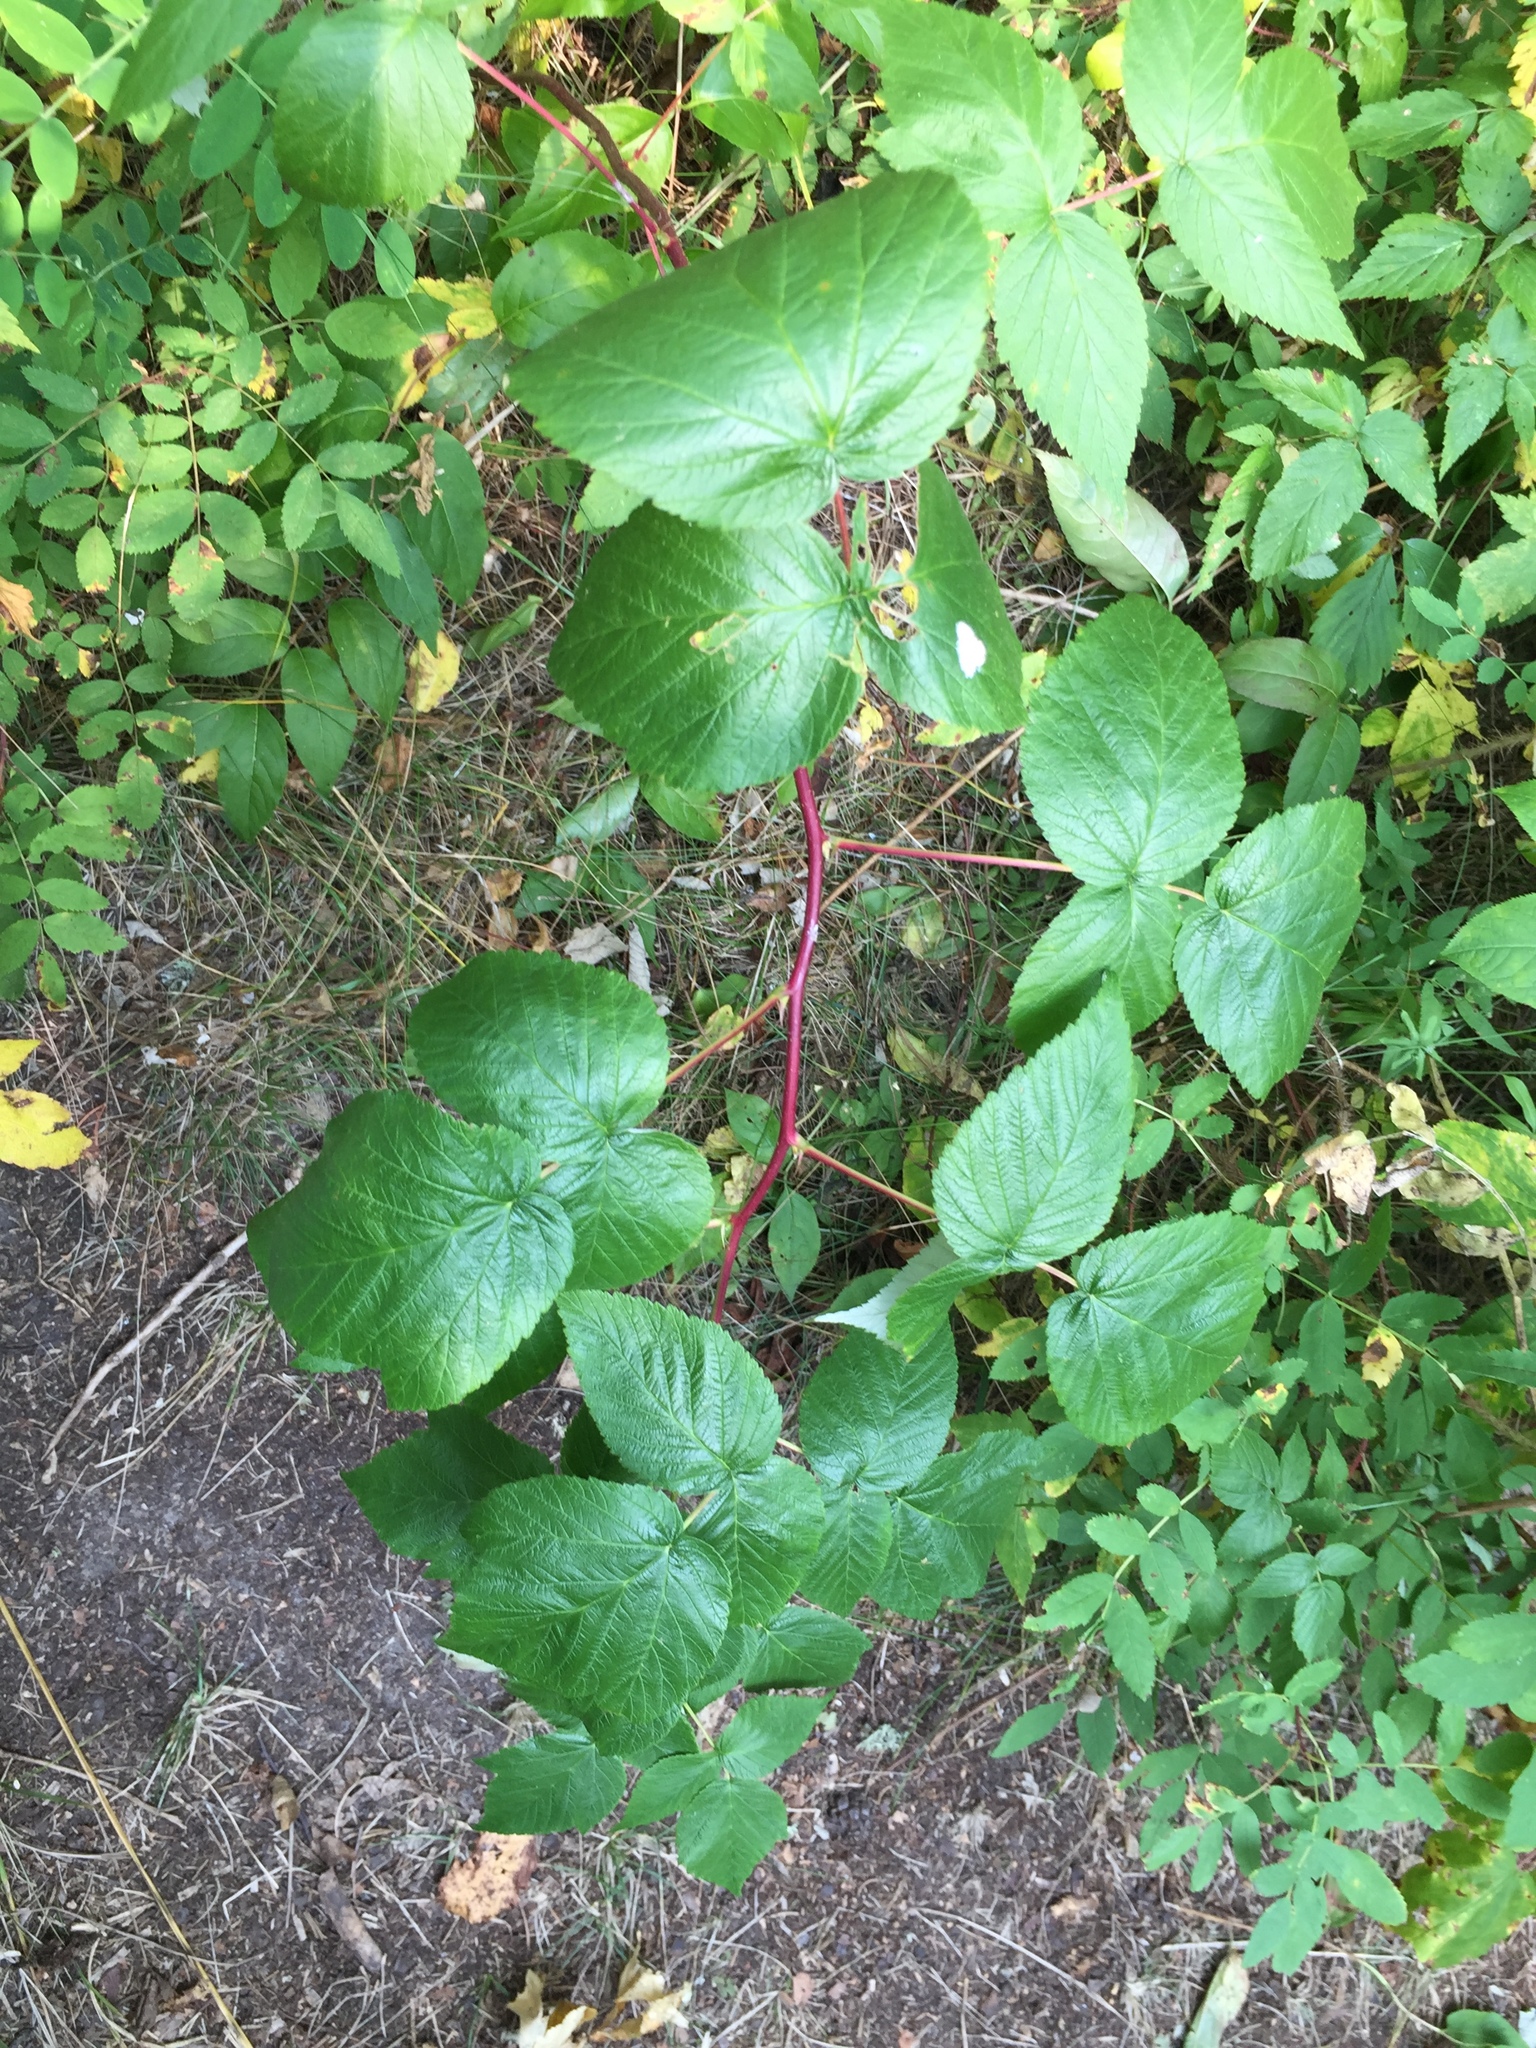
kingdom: Plantae
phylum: Tracheophyta
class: Magnoliopsida
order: Rosales
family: Rosaceae
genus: Rubus
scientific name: Rubus idaeus
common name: Raspberry
